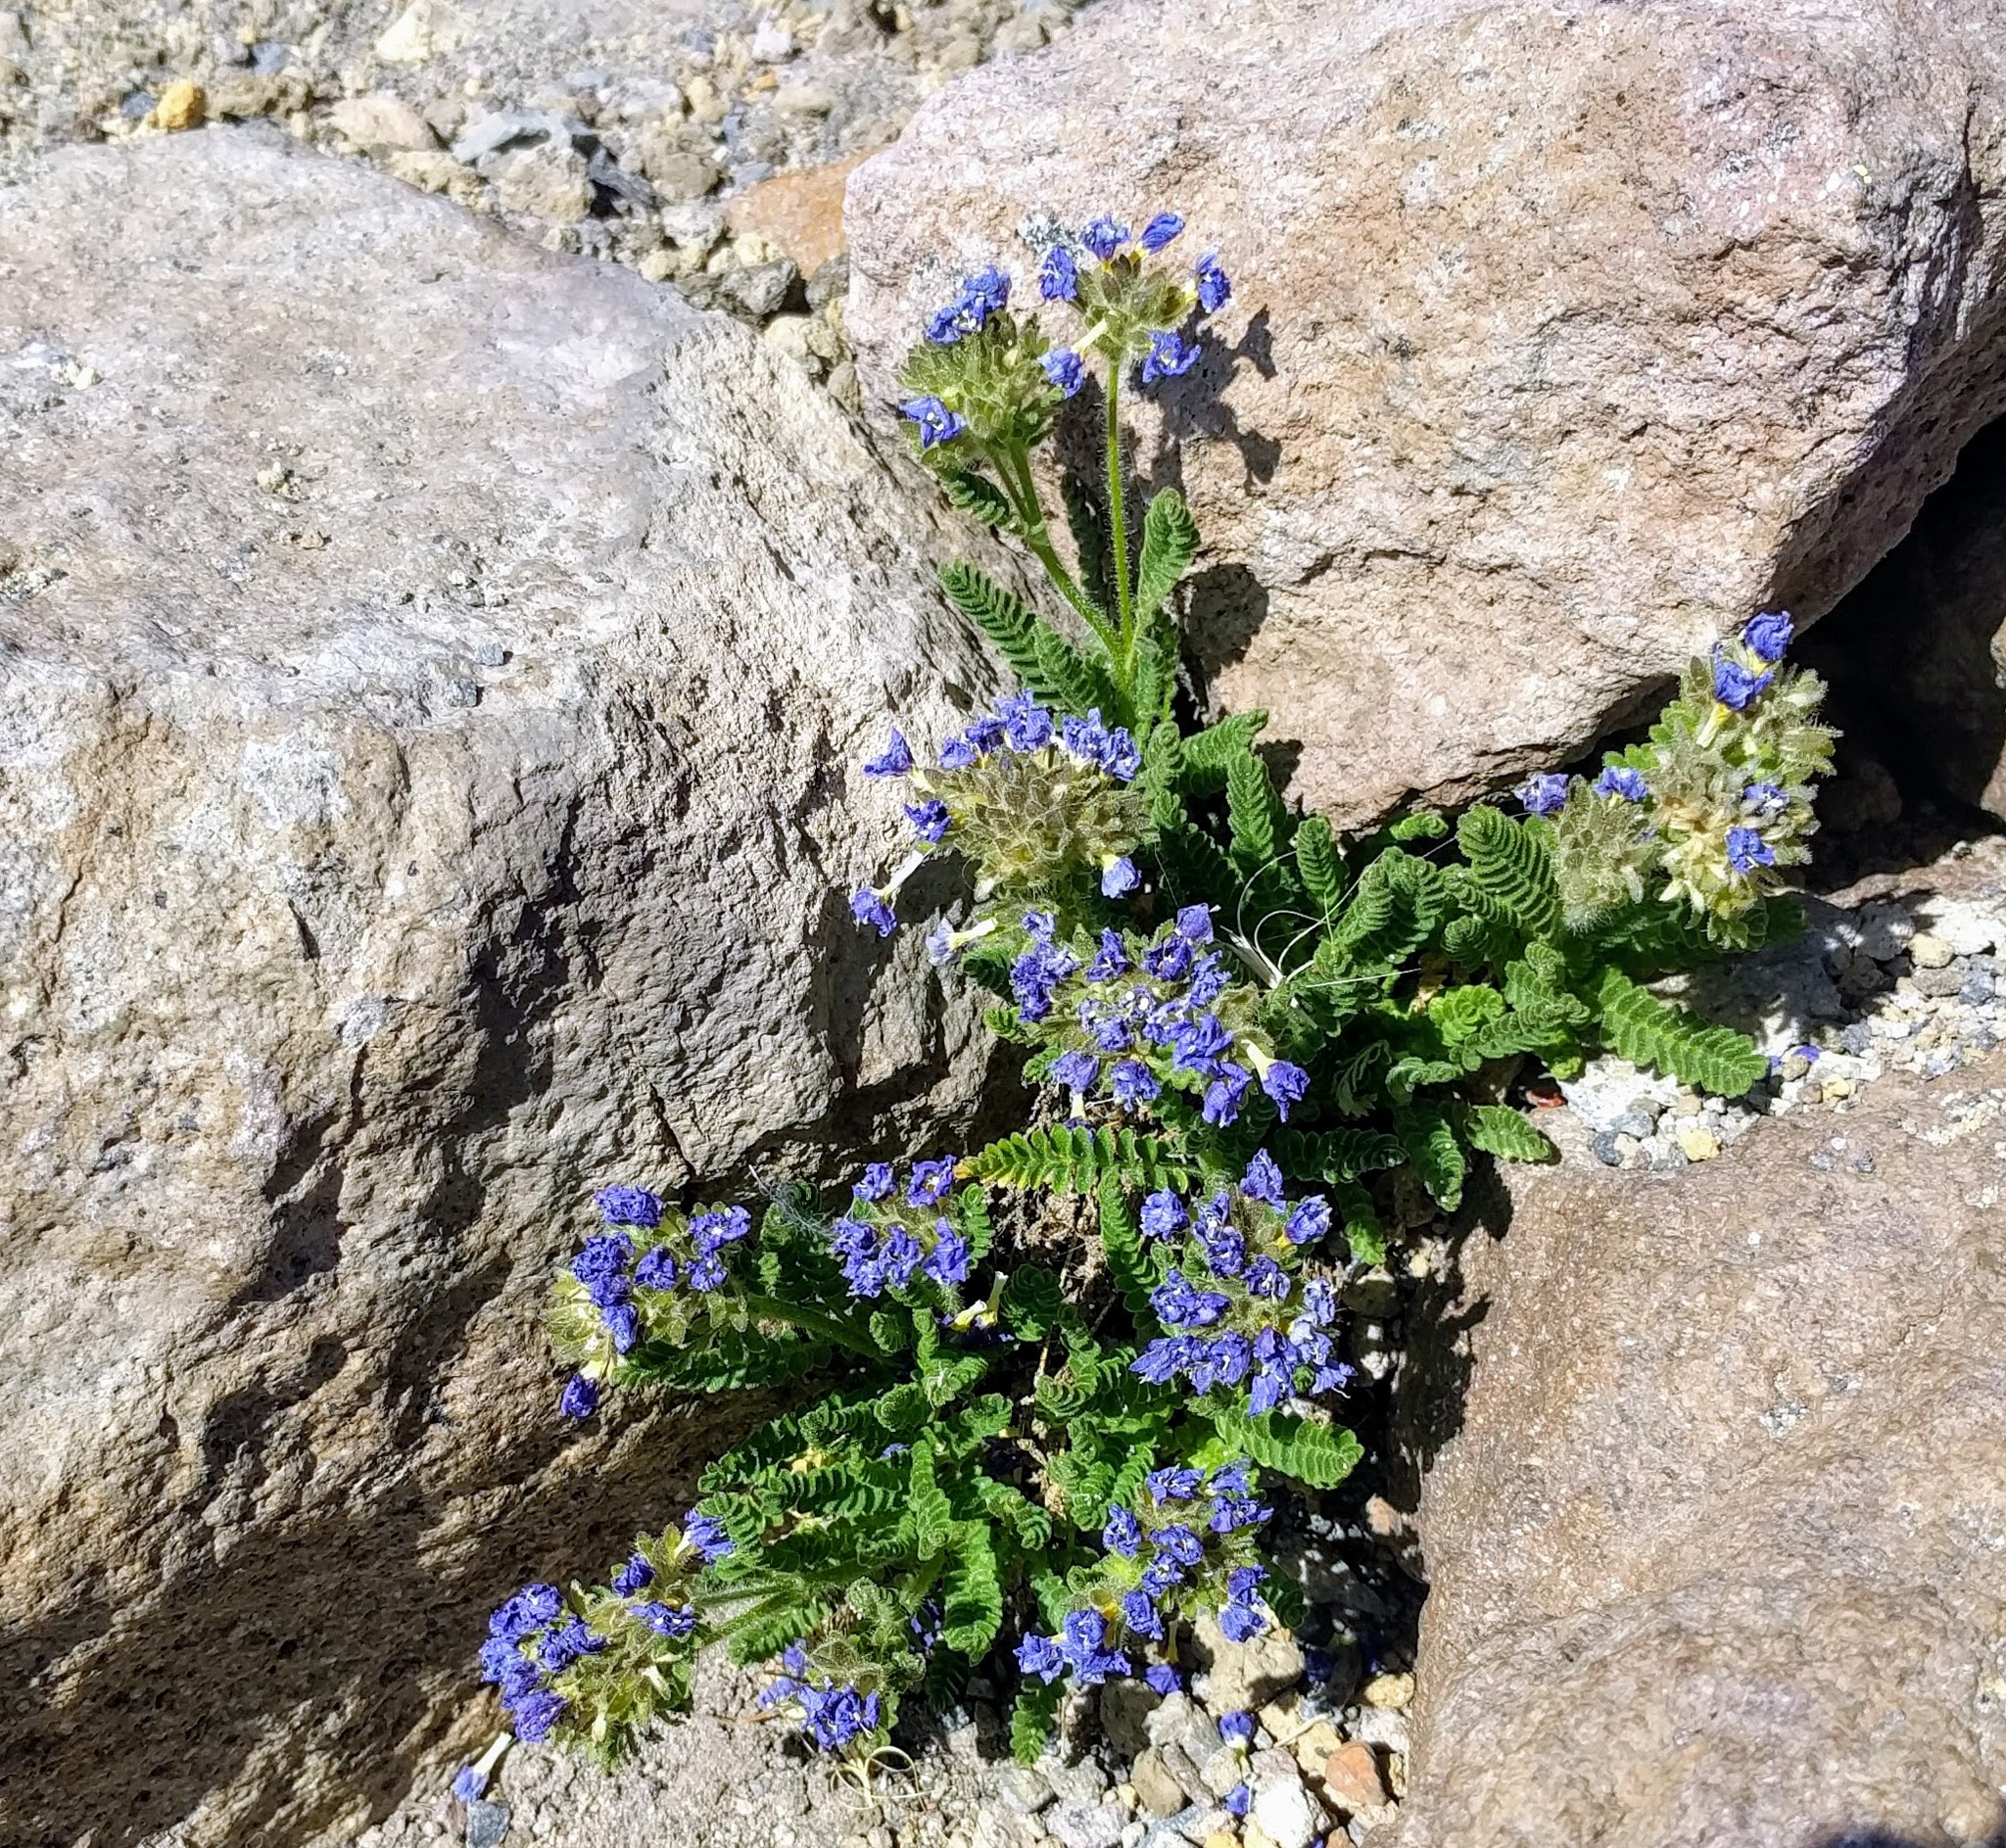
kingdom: Plantae
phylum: Tracheophyta
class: Magnoliopsida
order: Ericales
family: Polemoniaceae
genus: Polemonium
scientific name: Polemonium elegans
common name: Elegant jacob's-ladder
